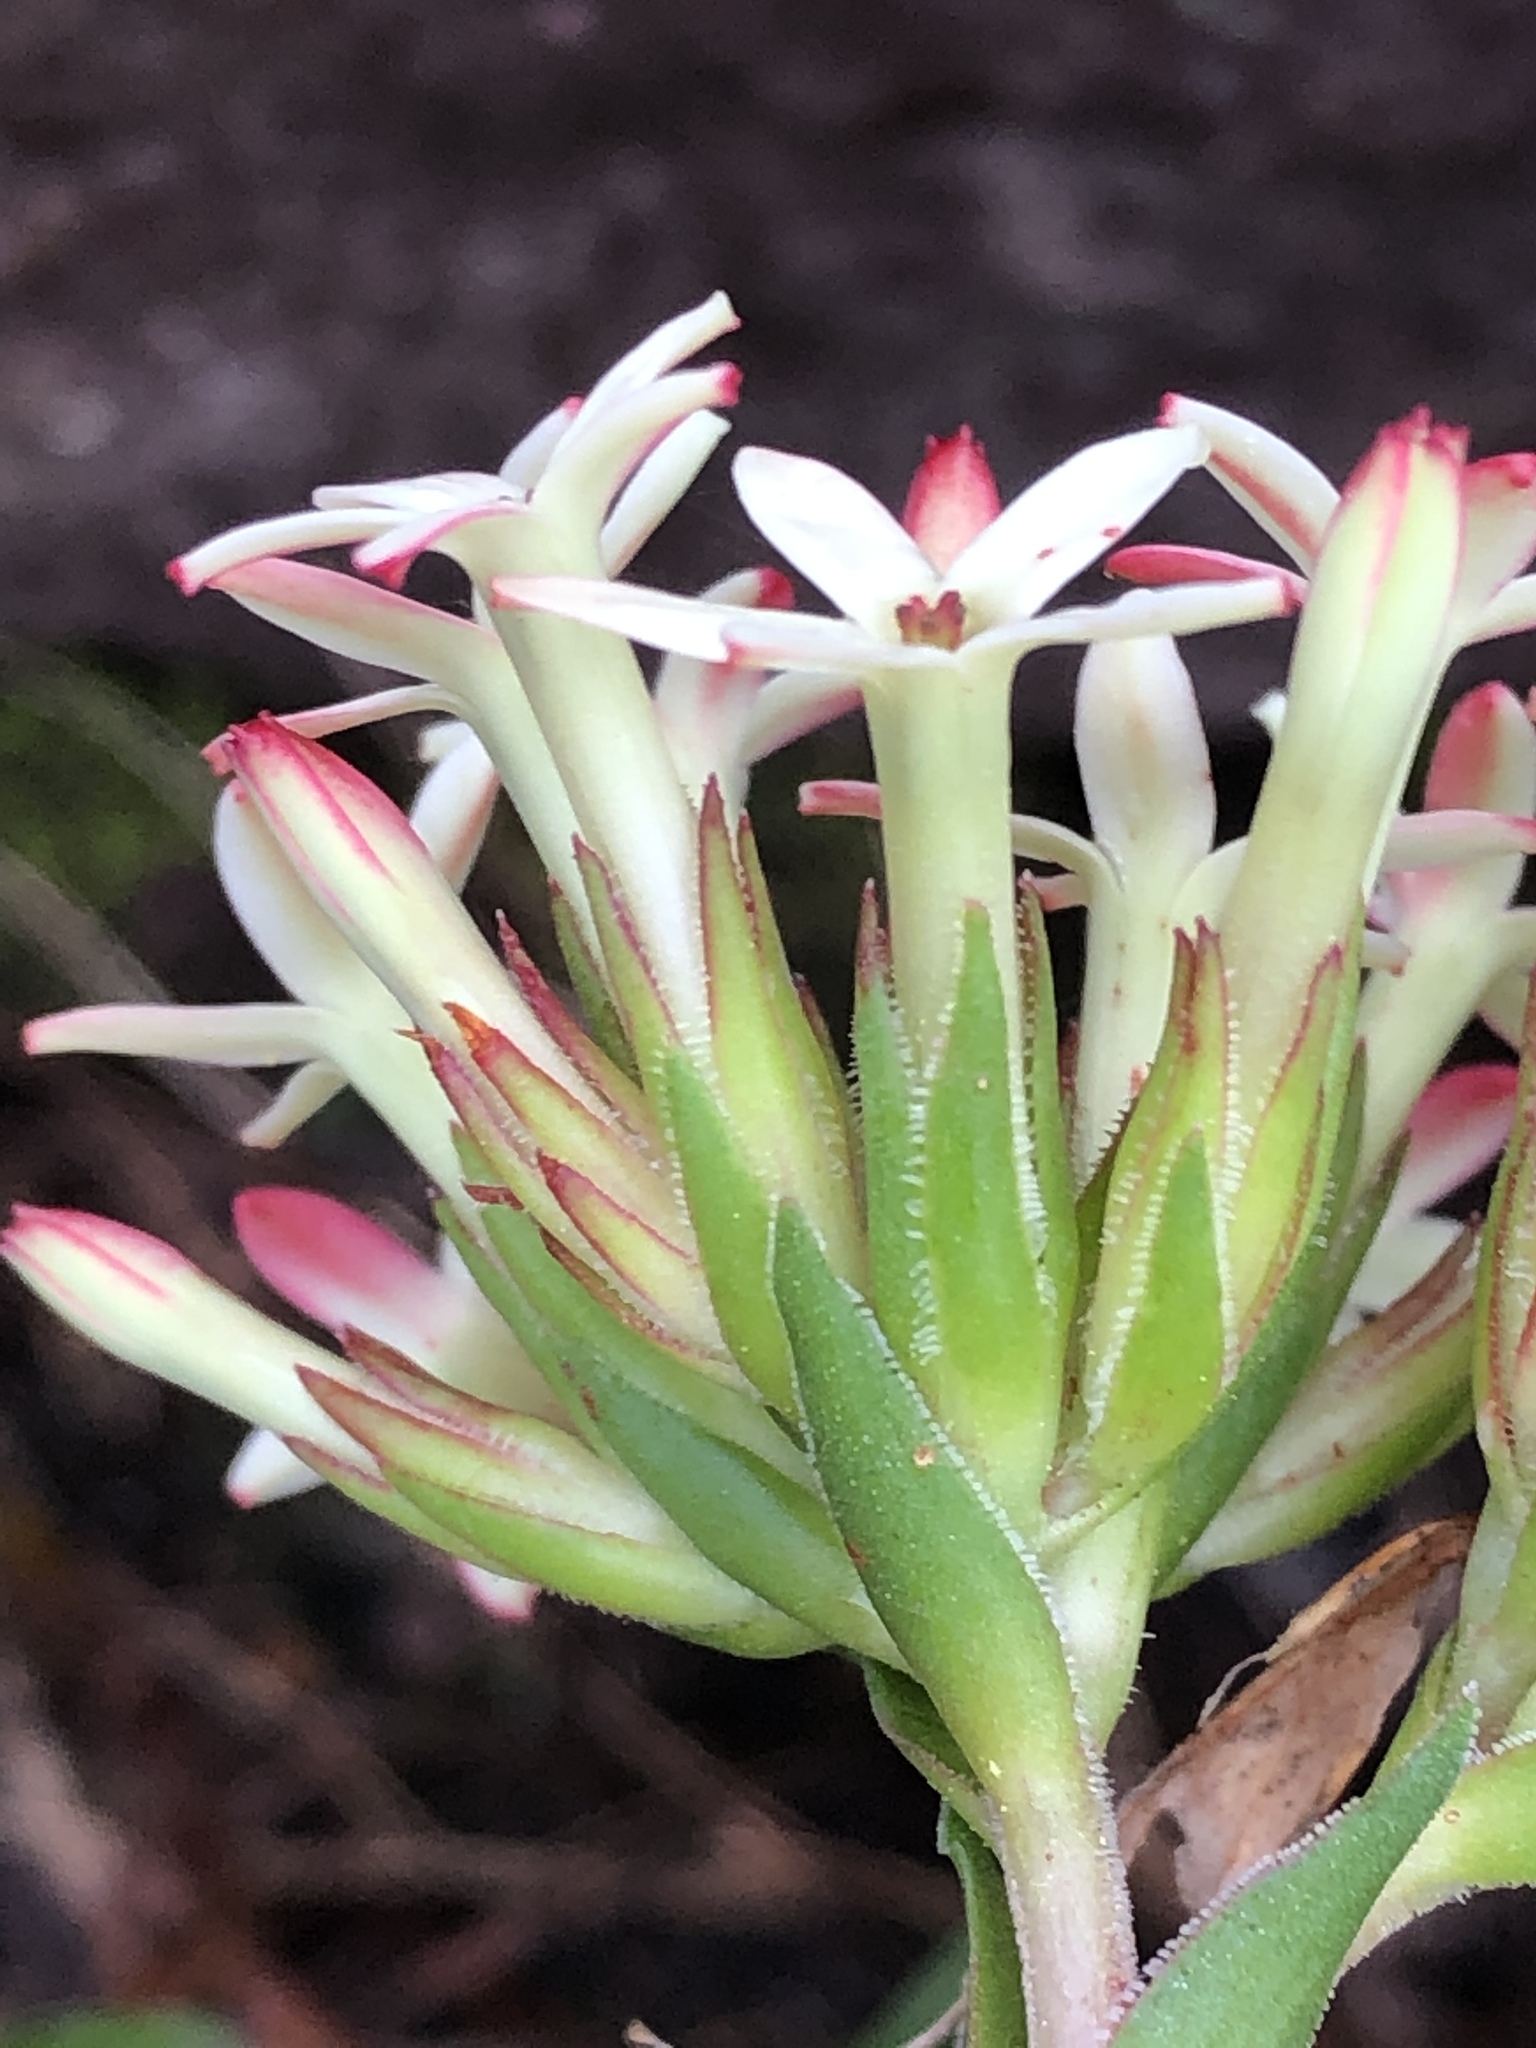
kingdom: Plantae
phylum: Tracheophyta
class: Magnoliopsida
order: Saxifragales
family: Crassulaceae
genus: Crassula
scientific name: Crassula fascicularis
